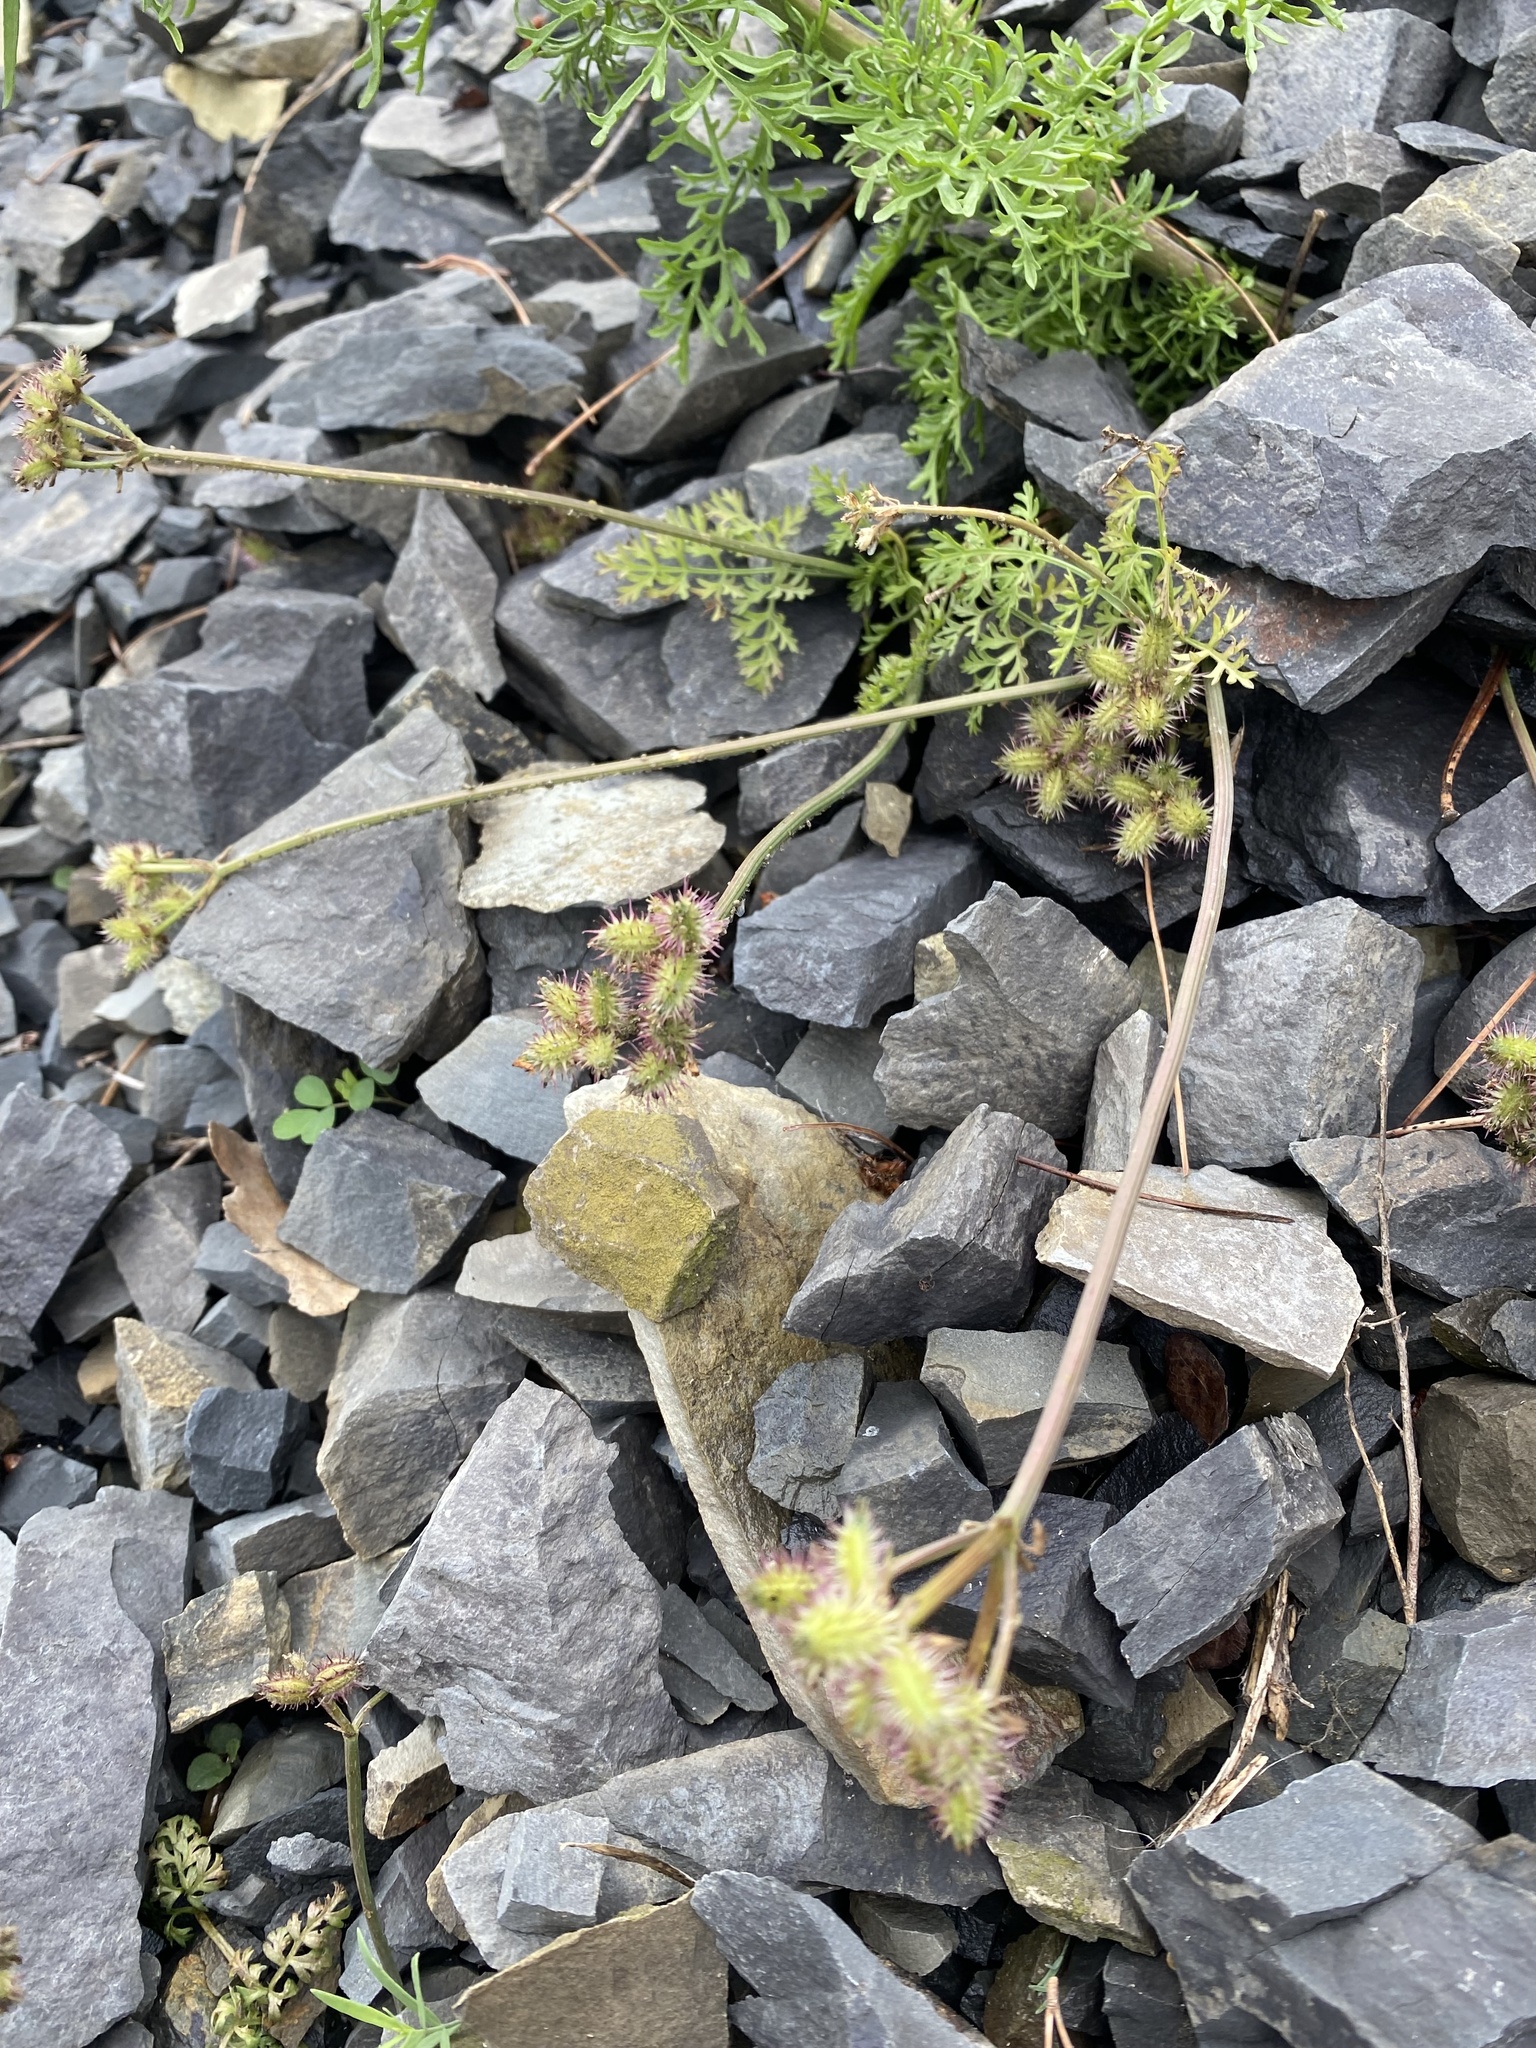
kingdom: Plantae
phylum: Tracheophyta
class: Magnoliopsida
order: Apiales
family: Apiaceae
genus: Caucalis
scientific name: Caucalis platycarpos
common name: Small bur-parsley
